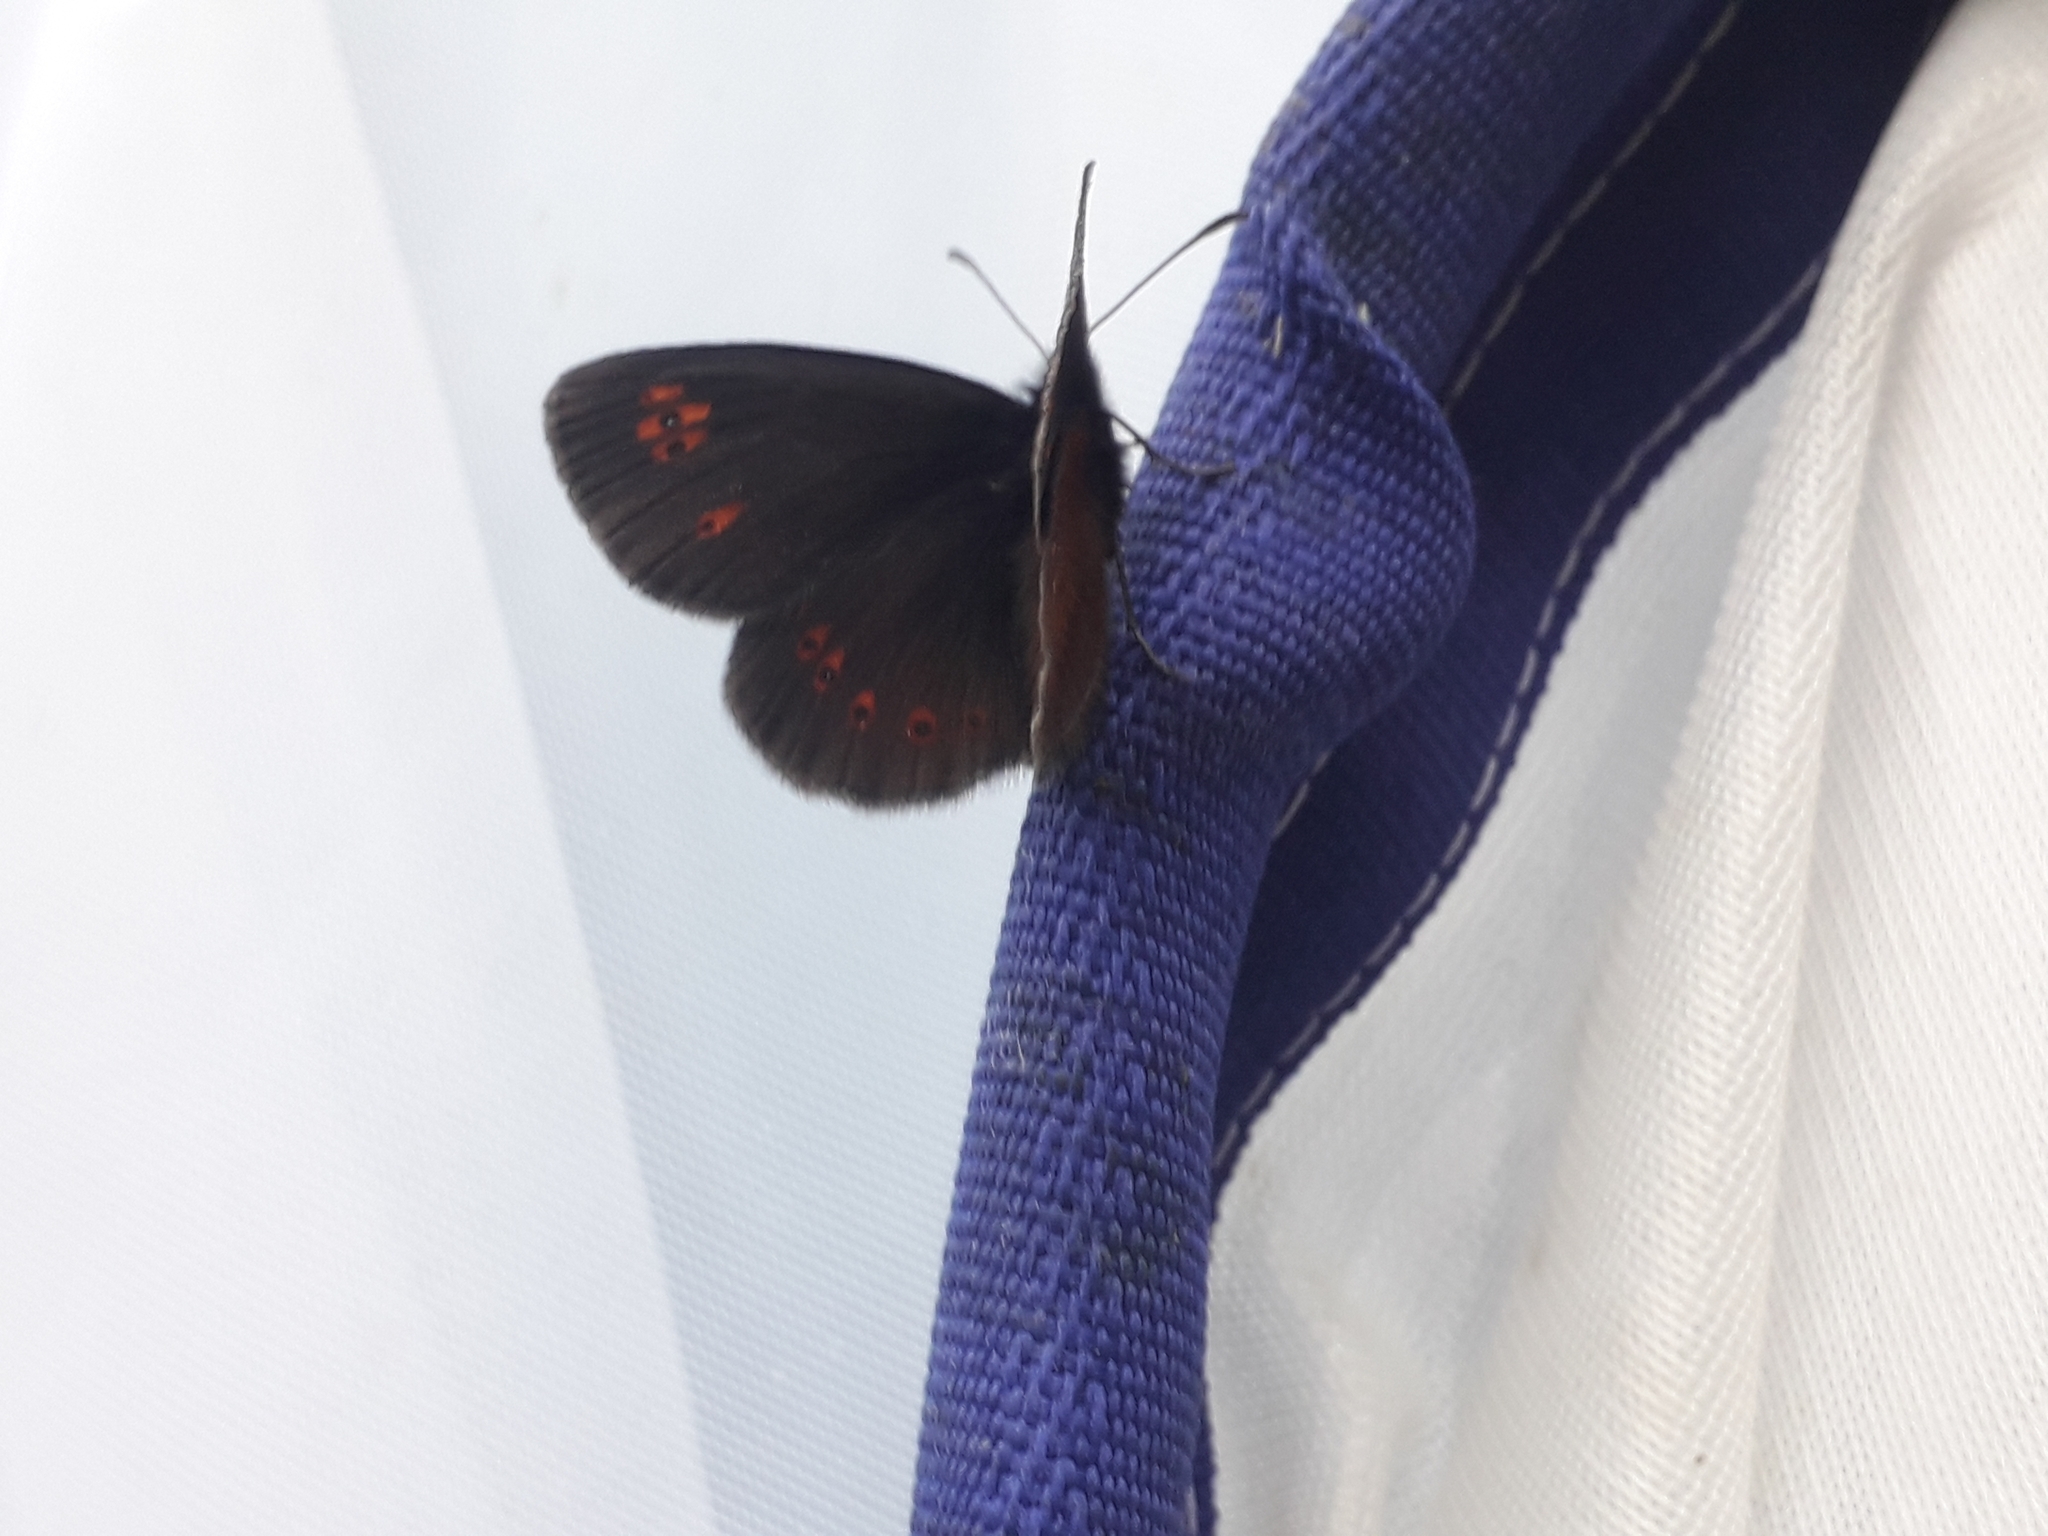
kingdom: Animalia
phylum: Arthropoda
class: Insecta
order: Lepidoptera
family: Nymphalidae
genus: Erebia
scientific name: Erebia alberganus
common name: Almond-eyed ringlet
